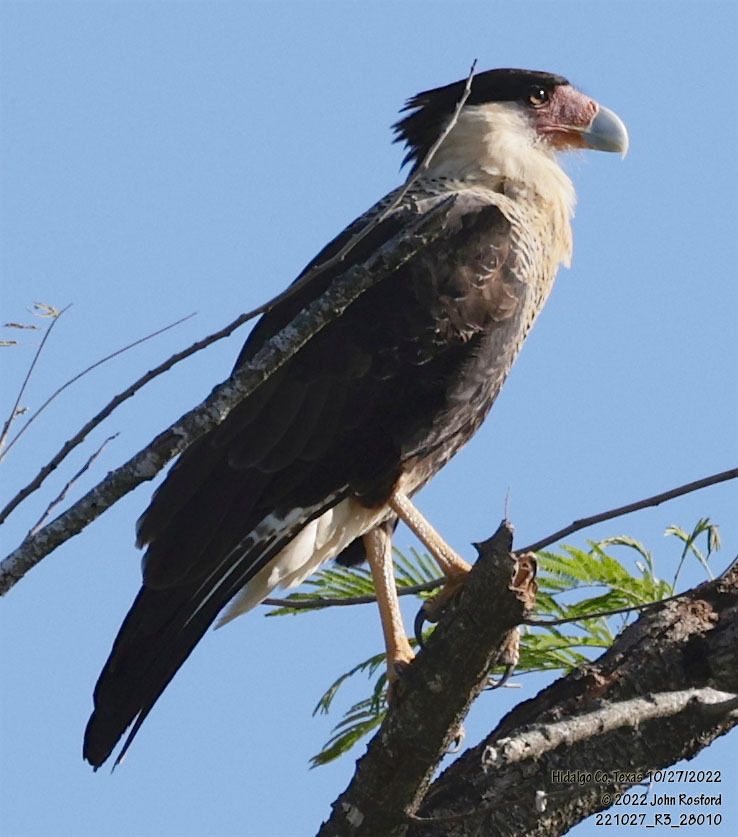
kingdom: Animalia
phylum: Chordata
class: Aves
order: Falconiformes
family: Falconidae
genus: Caracara
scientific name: Caracara plancus
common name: Southern caracara
